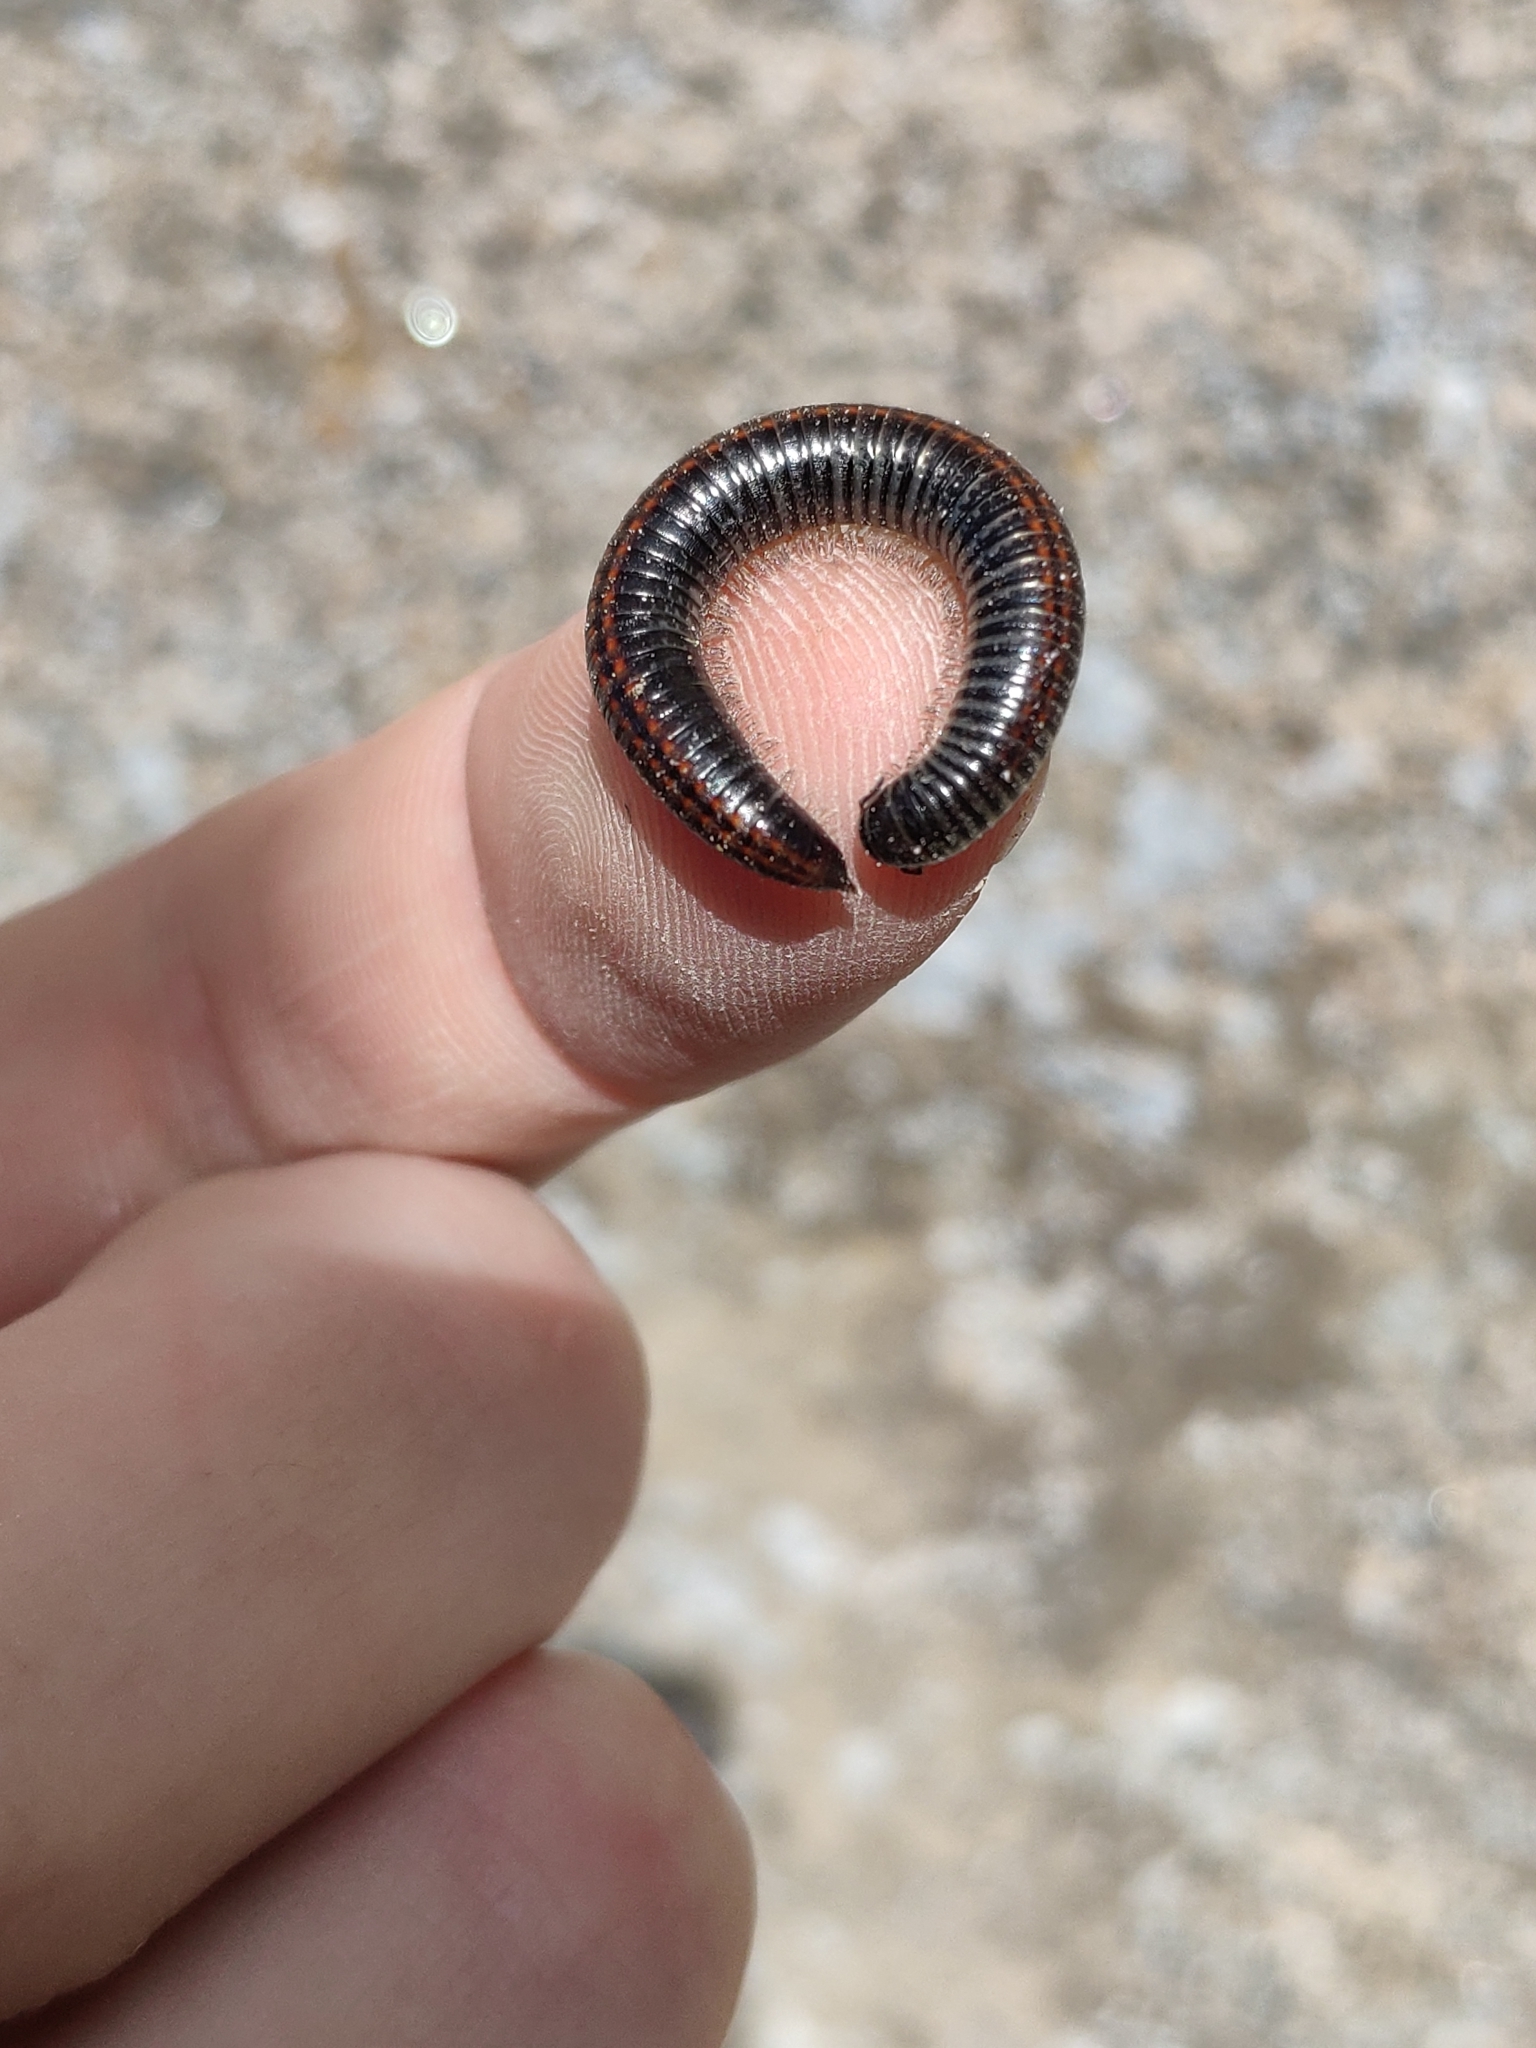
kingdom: Animalia
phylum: Arthropoda
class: Diplopoda
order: Julida
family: Julidae
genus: Ommatoiulus
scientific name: Ommatoiulus sabulosus
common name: Striped millipede
